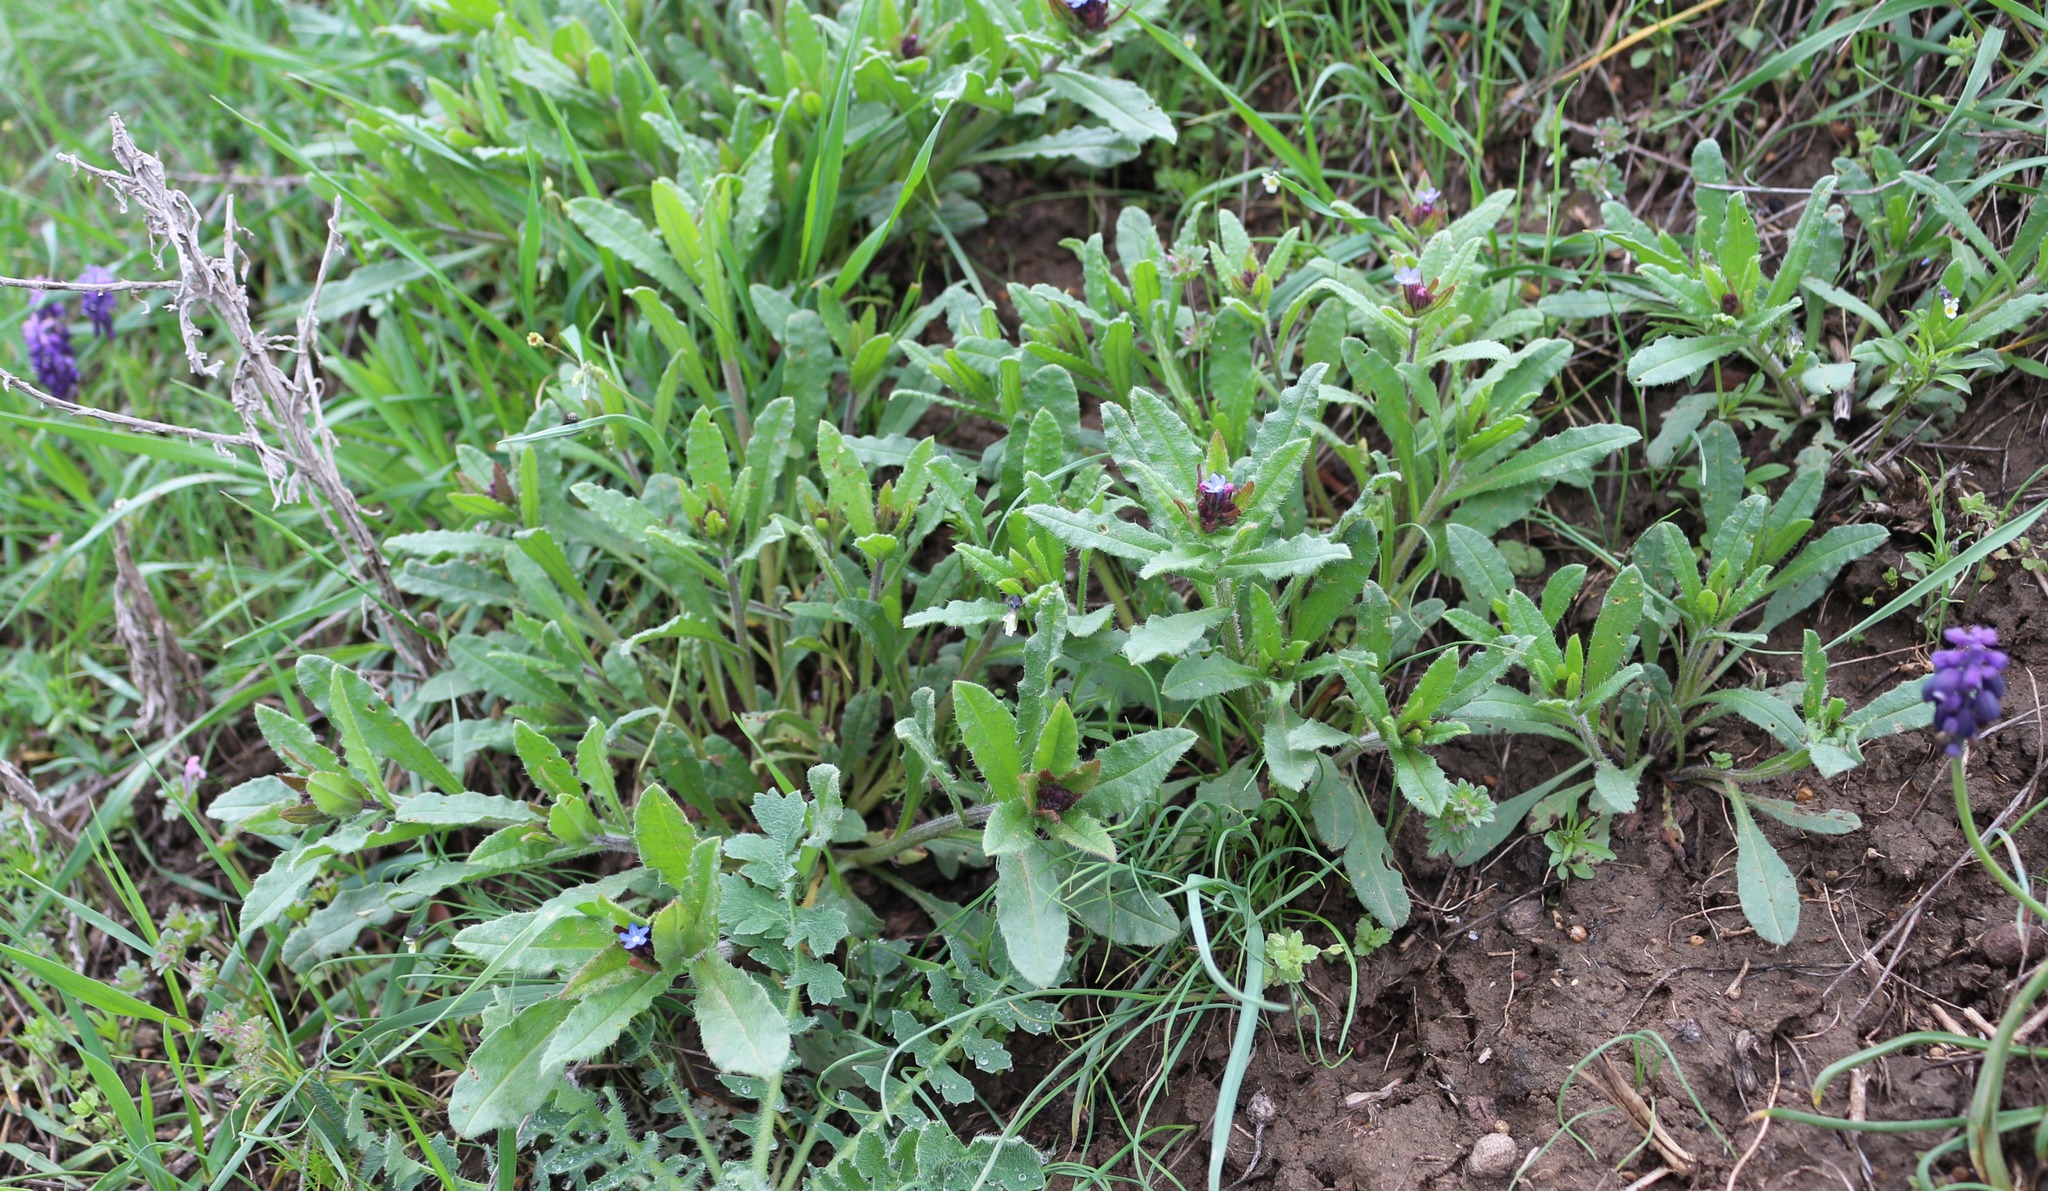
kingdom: Plantae
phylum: Tracheophyta
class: Magnoliopsida
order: Boraginales
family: Boraginaceae
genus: Lycopsis
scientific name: Lycopsis arvensis
